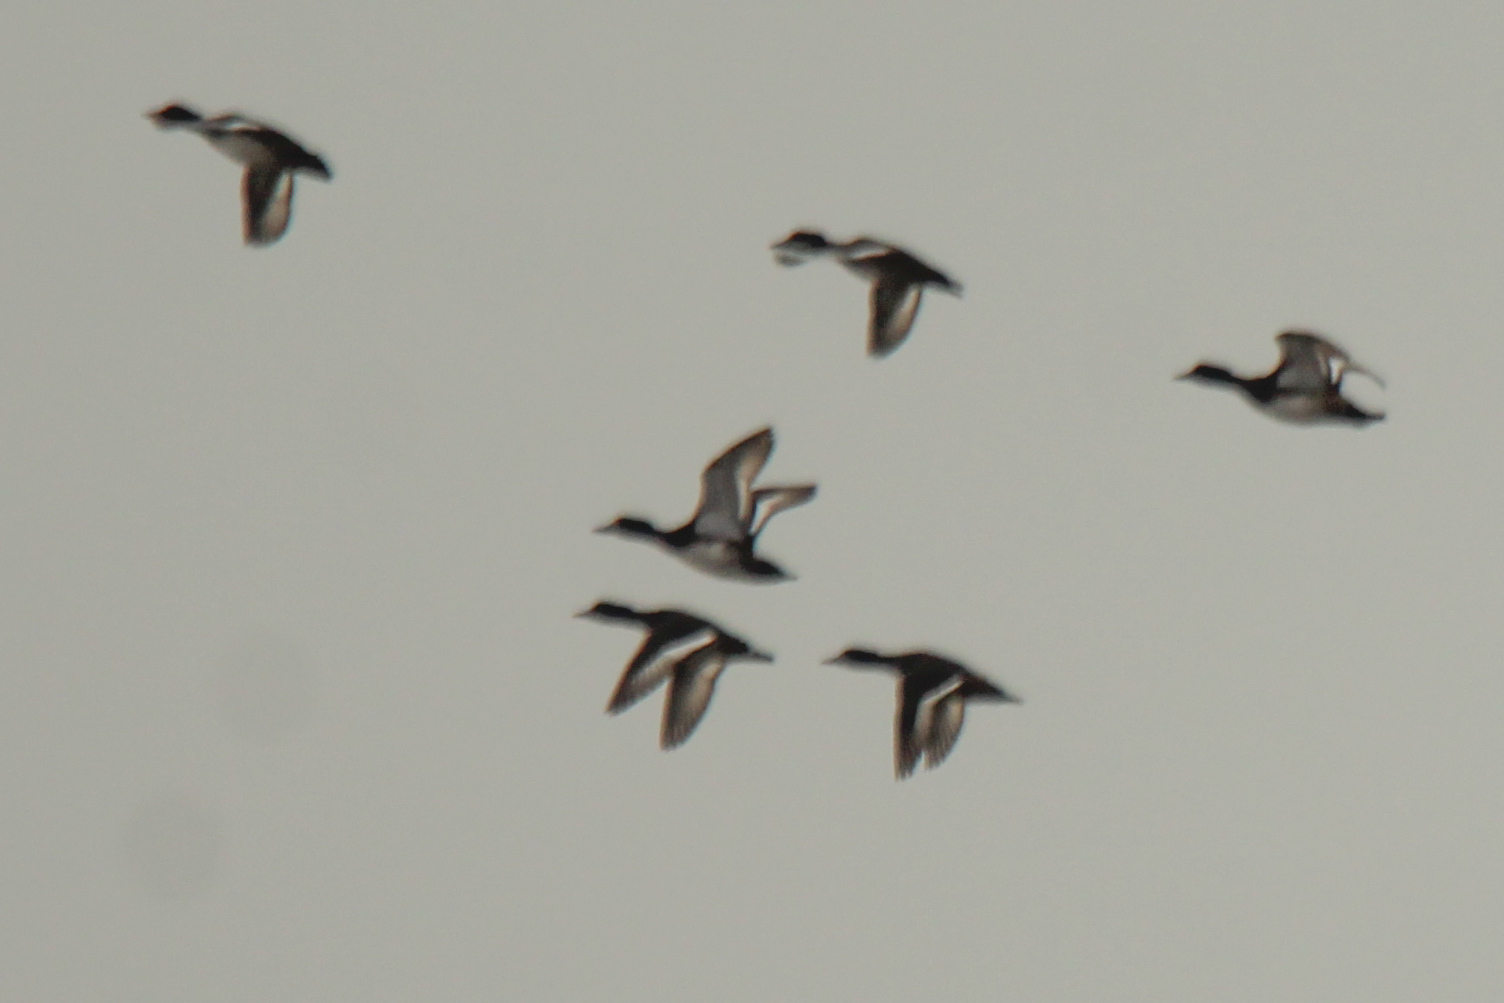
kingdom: Animalia
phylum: Chordata
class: Aves
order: Anseriformes
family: Anatidae
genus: Aythya
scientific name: Aythya fuligula
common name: Tufted duck
